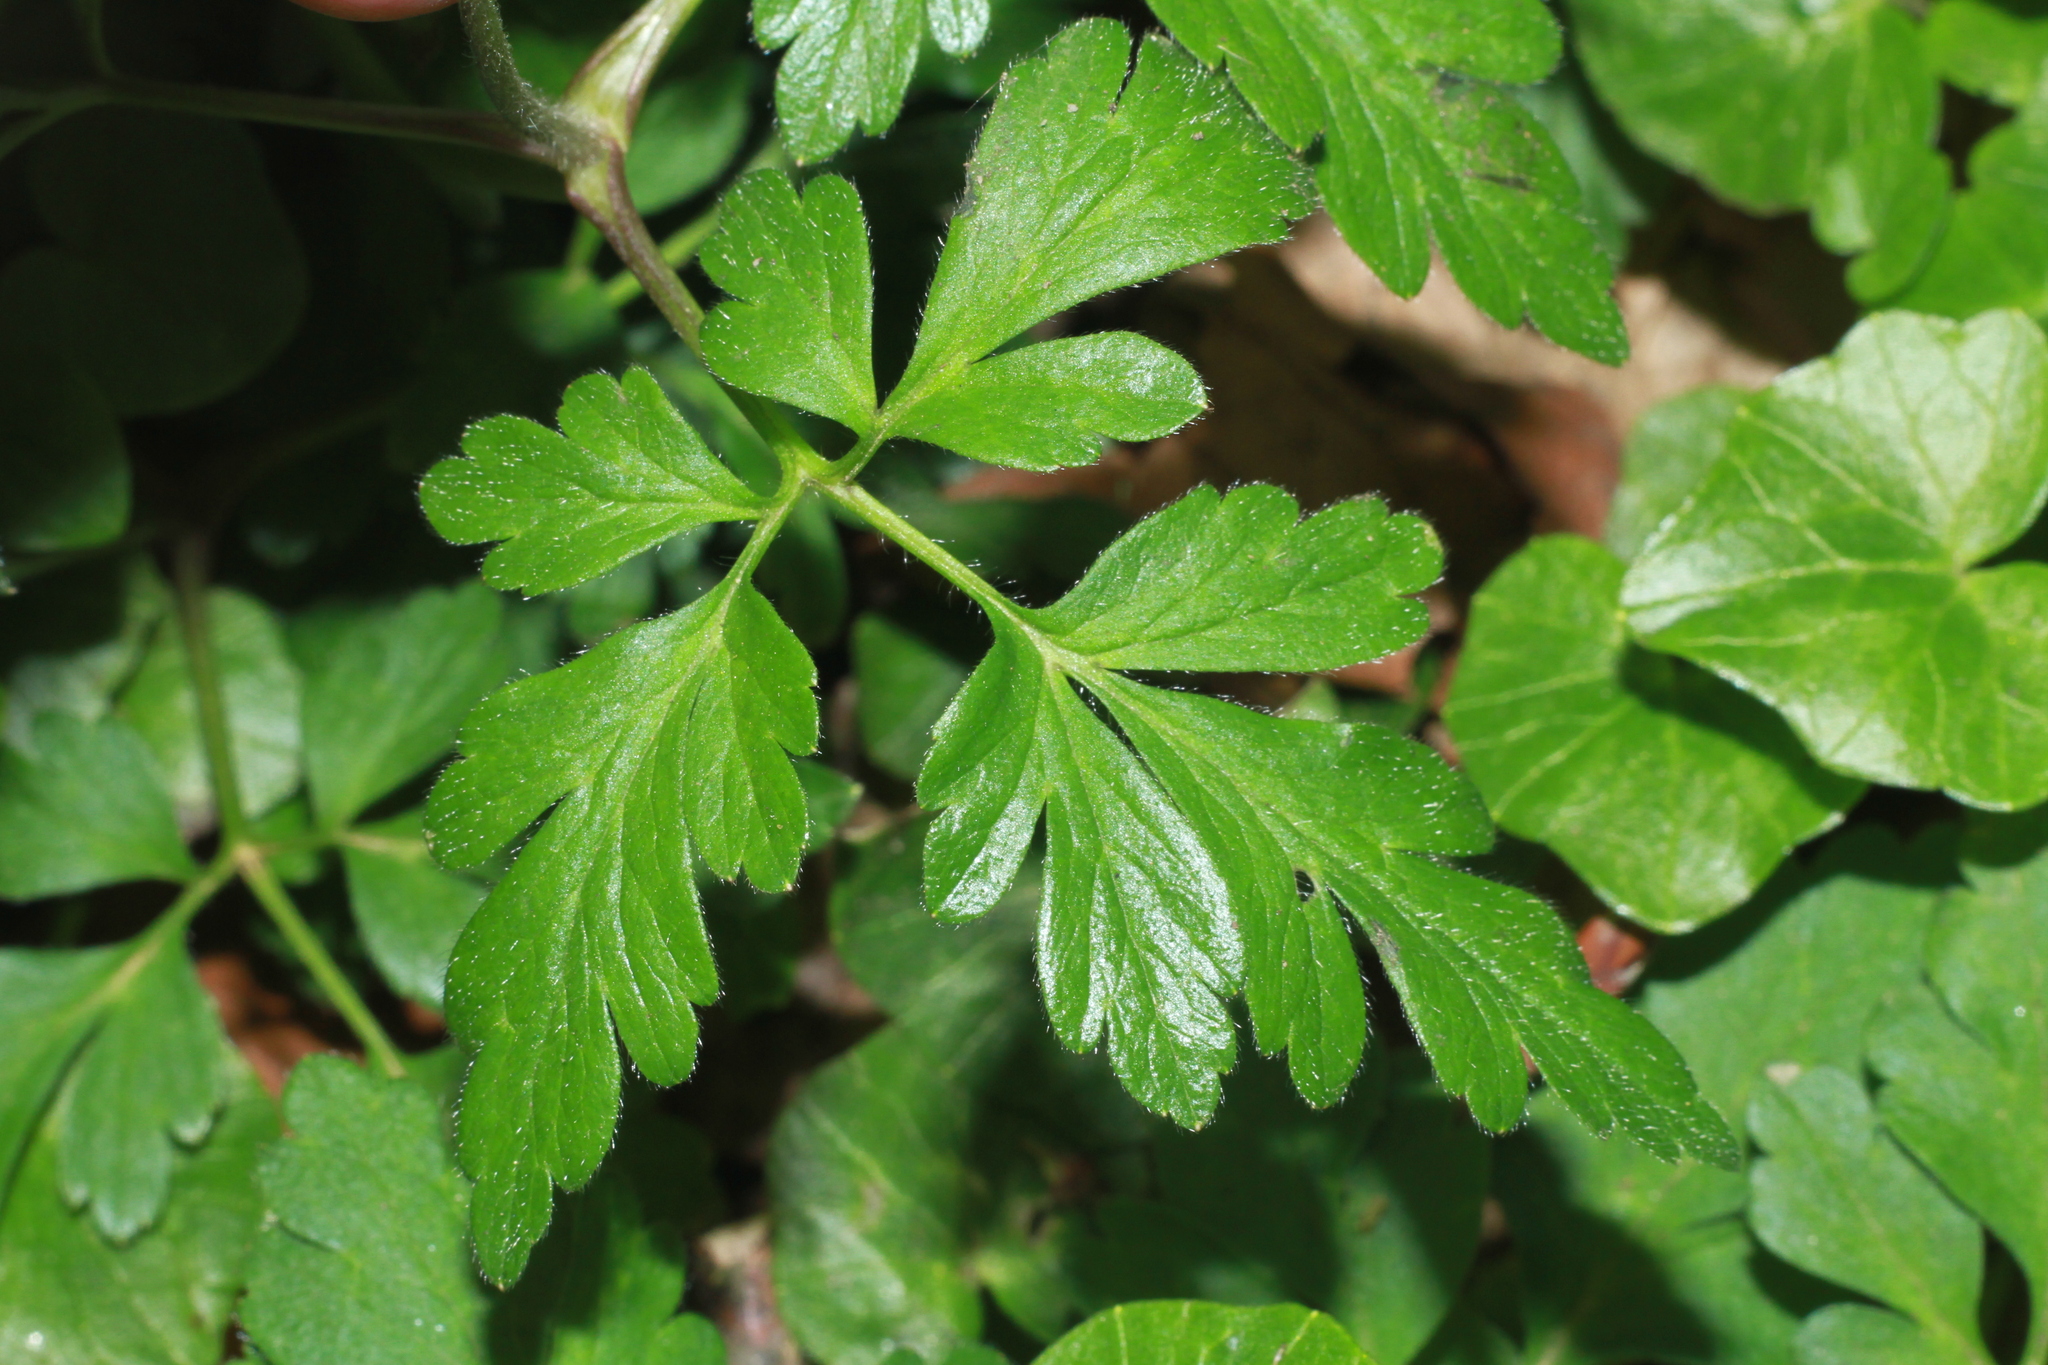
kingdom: Plantae
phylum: Tracheophyta
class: Magnoliopsida
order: Ranunculales
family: Ranunculaceae
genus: Anemone
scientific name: Anemone apennina
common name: Blue anemone
